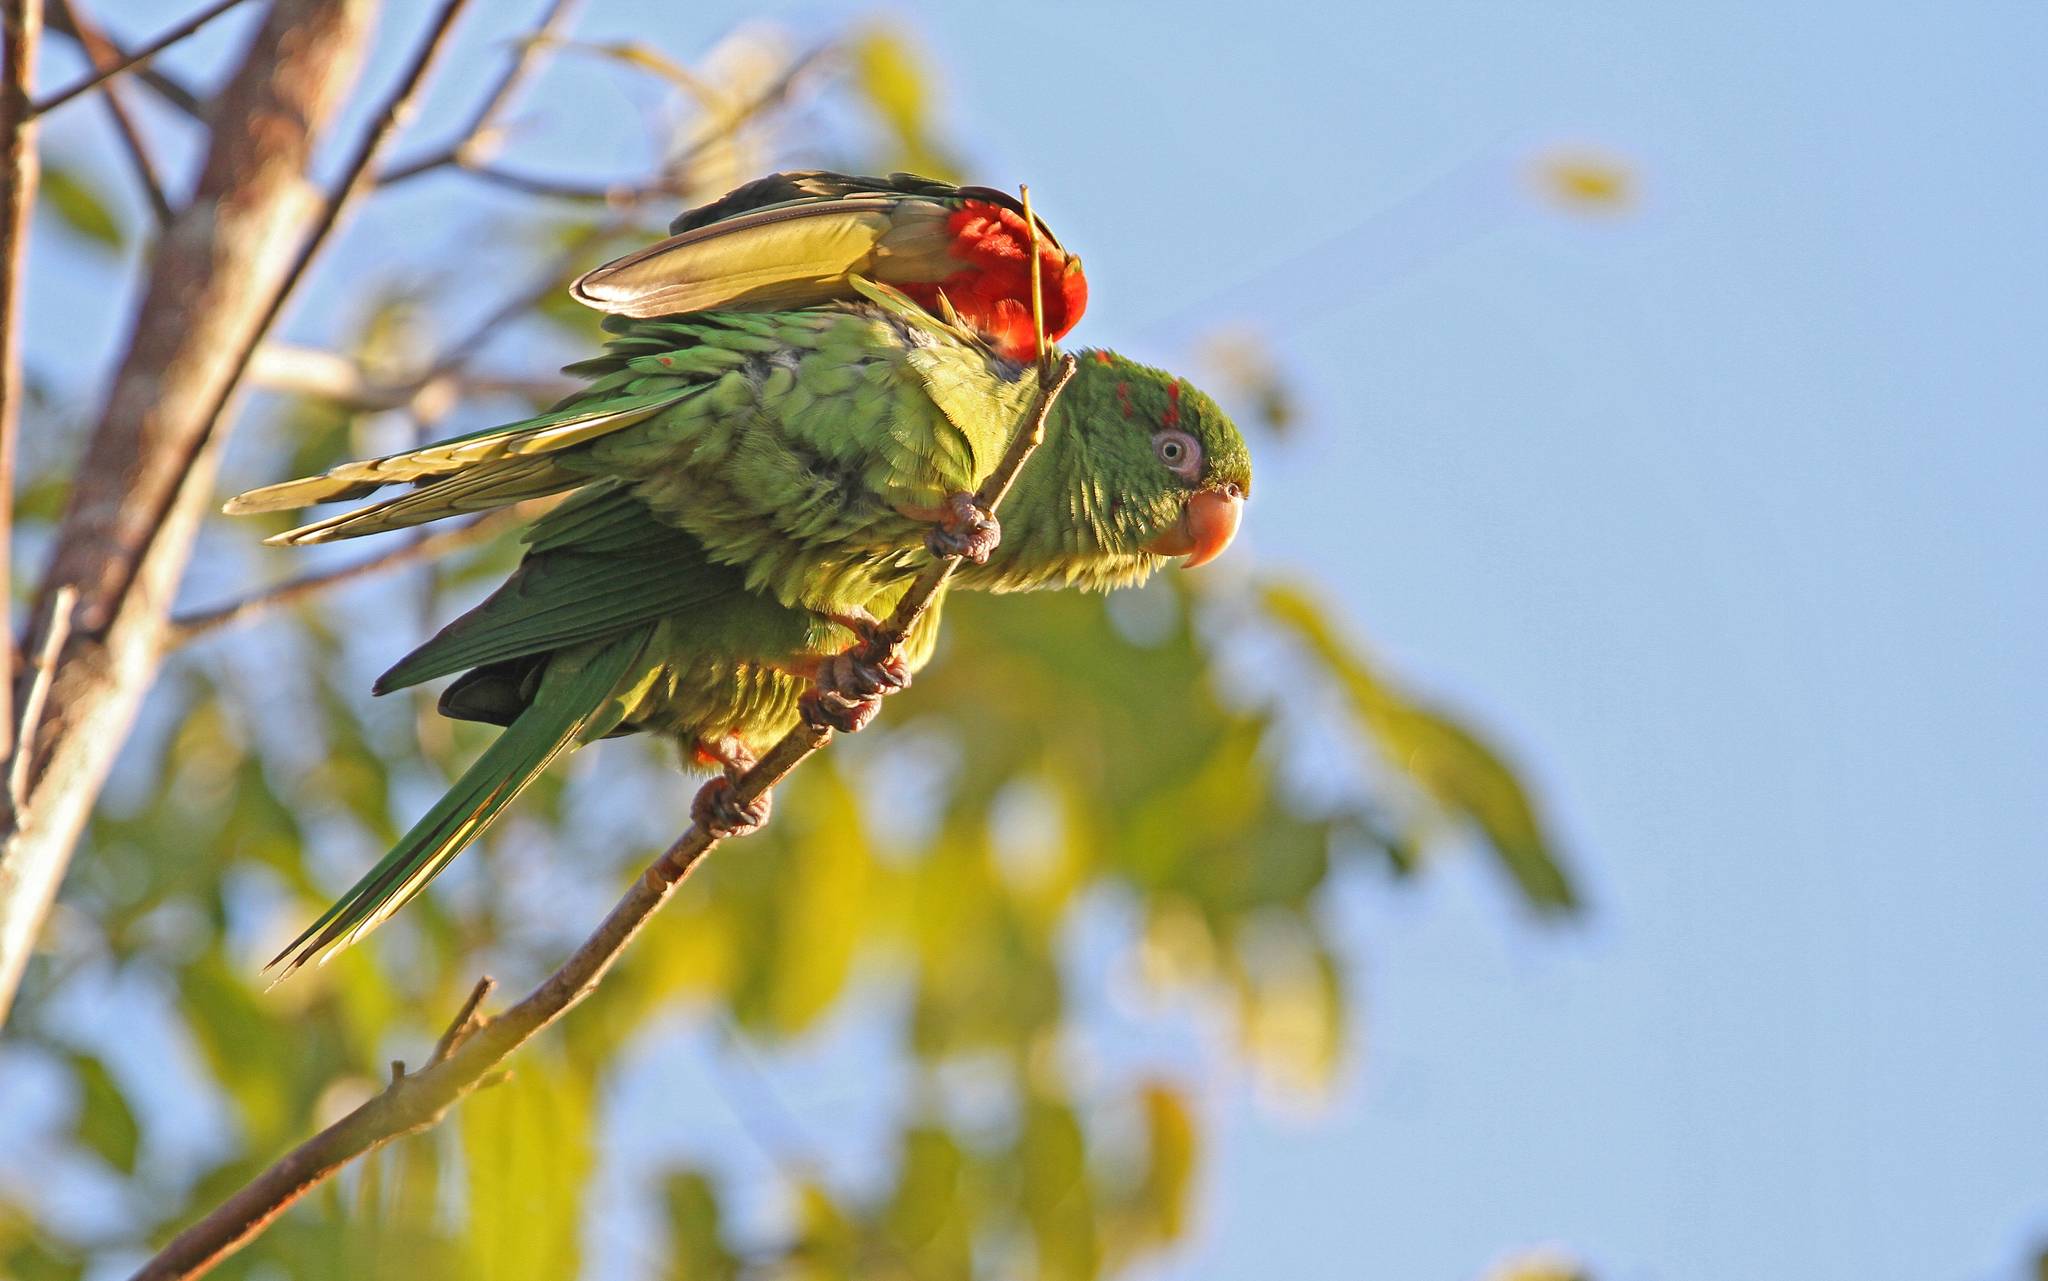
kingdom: Animalia
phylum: Chordata
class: Aves
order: Psittaciformes
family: Psittacidae
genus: Aratinga
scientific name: Aratinga euops
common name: Cuban parakeet
